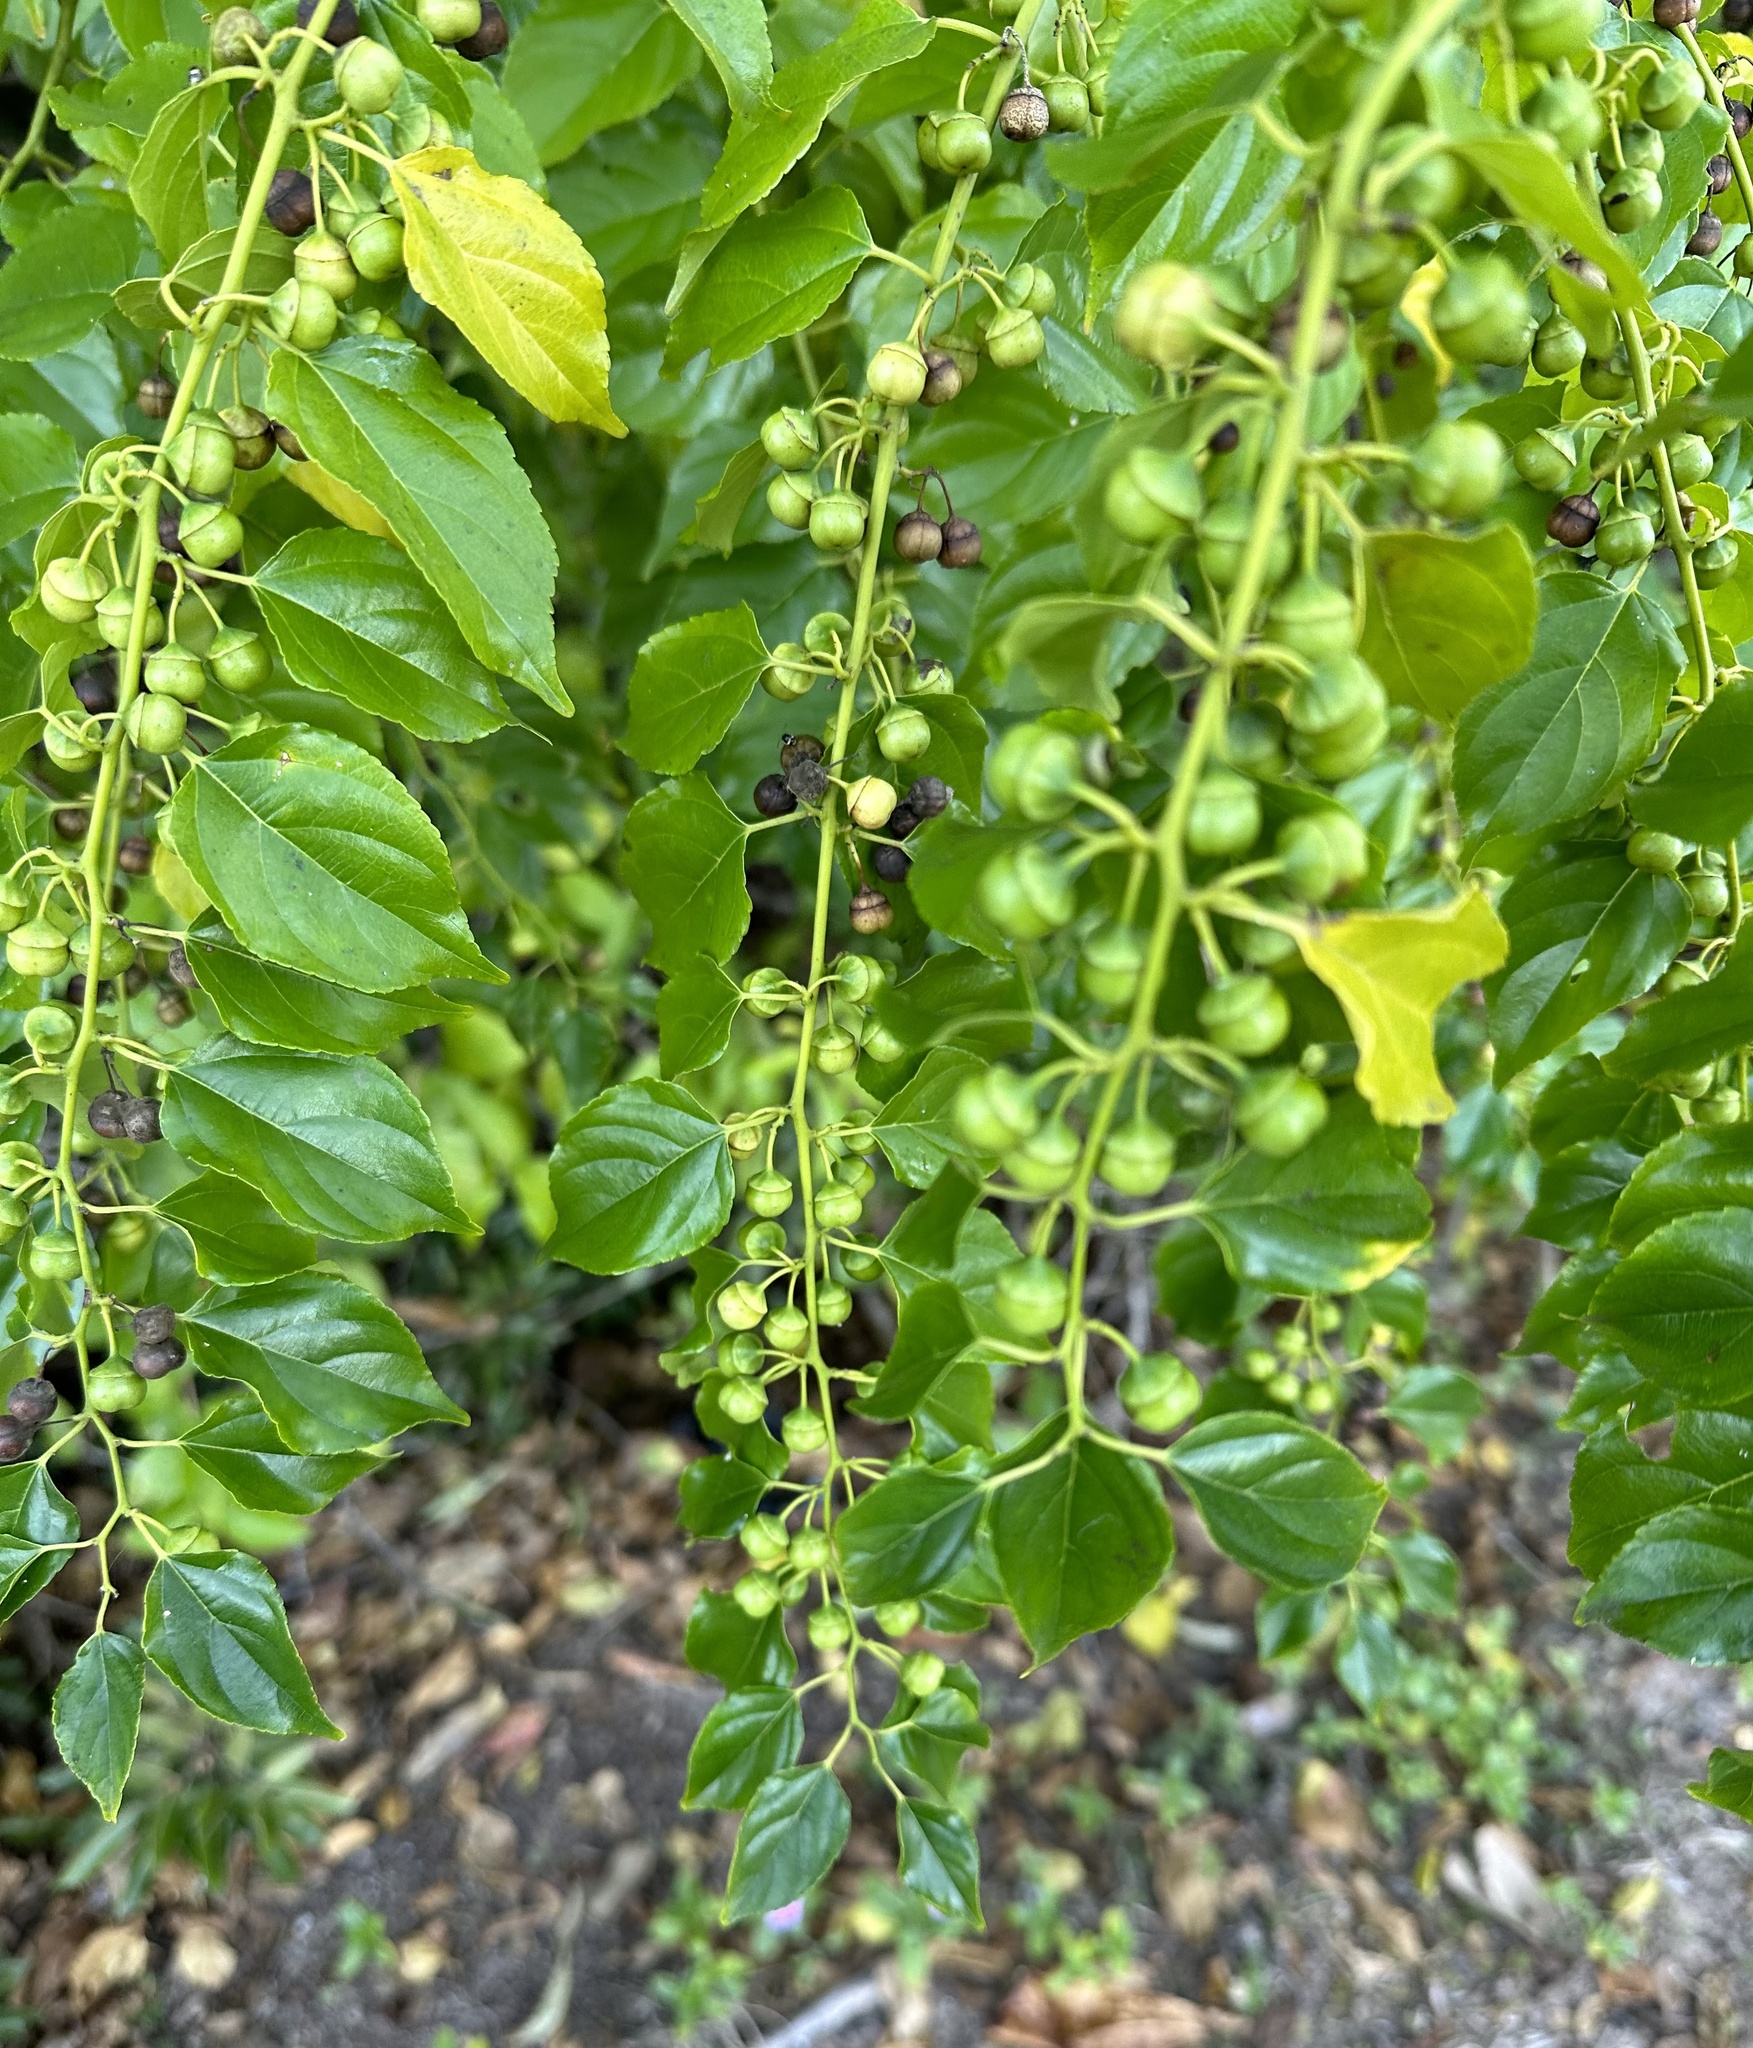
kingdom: Plantae
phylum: Tracheophyta
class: Magnoliopsida
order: Rosales
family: Rhamnaceae
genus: Colubrina
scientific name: Colubrina asiatica
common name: Asian nakedwood
